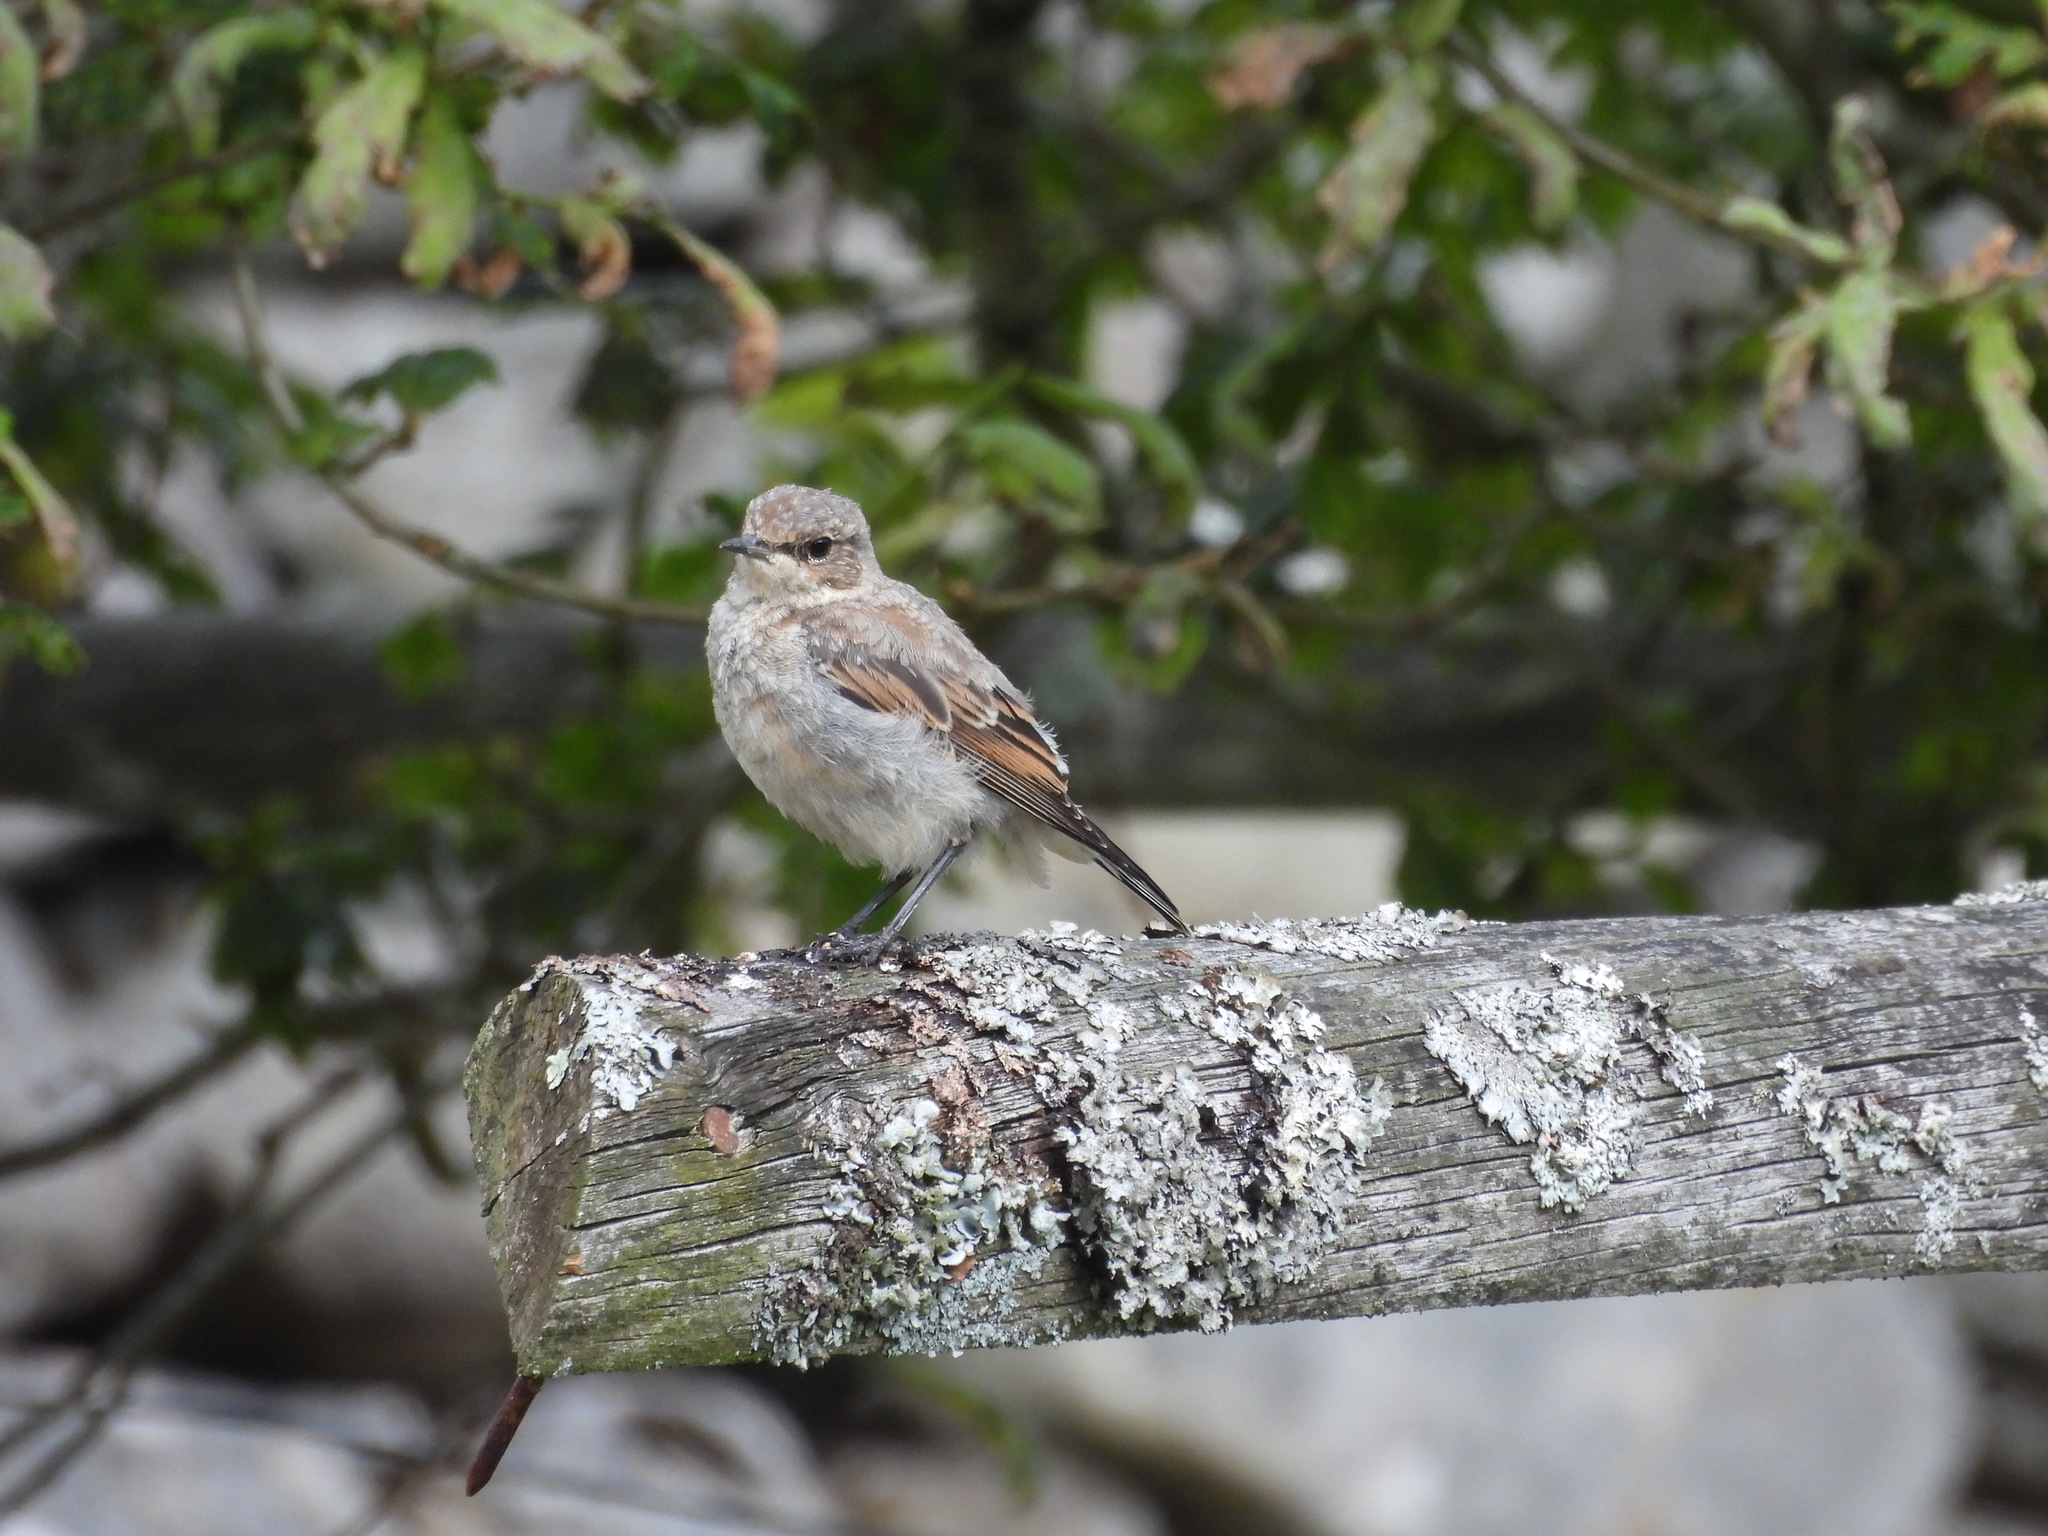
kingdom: Animalia
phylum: Chordata
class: Aves
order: Passeriformes
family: Muscicapidae
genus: Oenanthe
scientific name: Oenanthe oenanthe
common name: Northern wheatear
